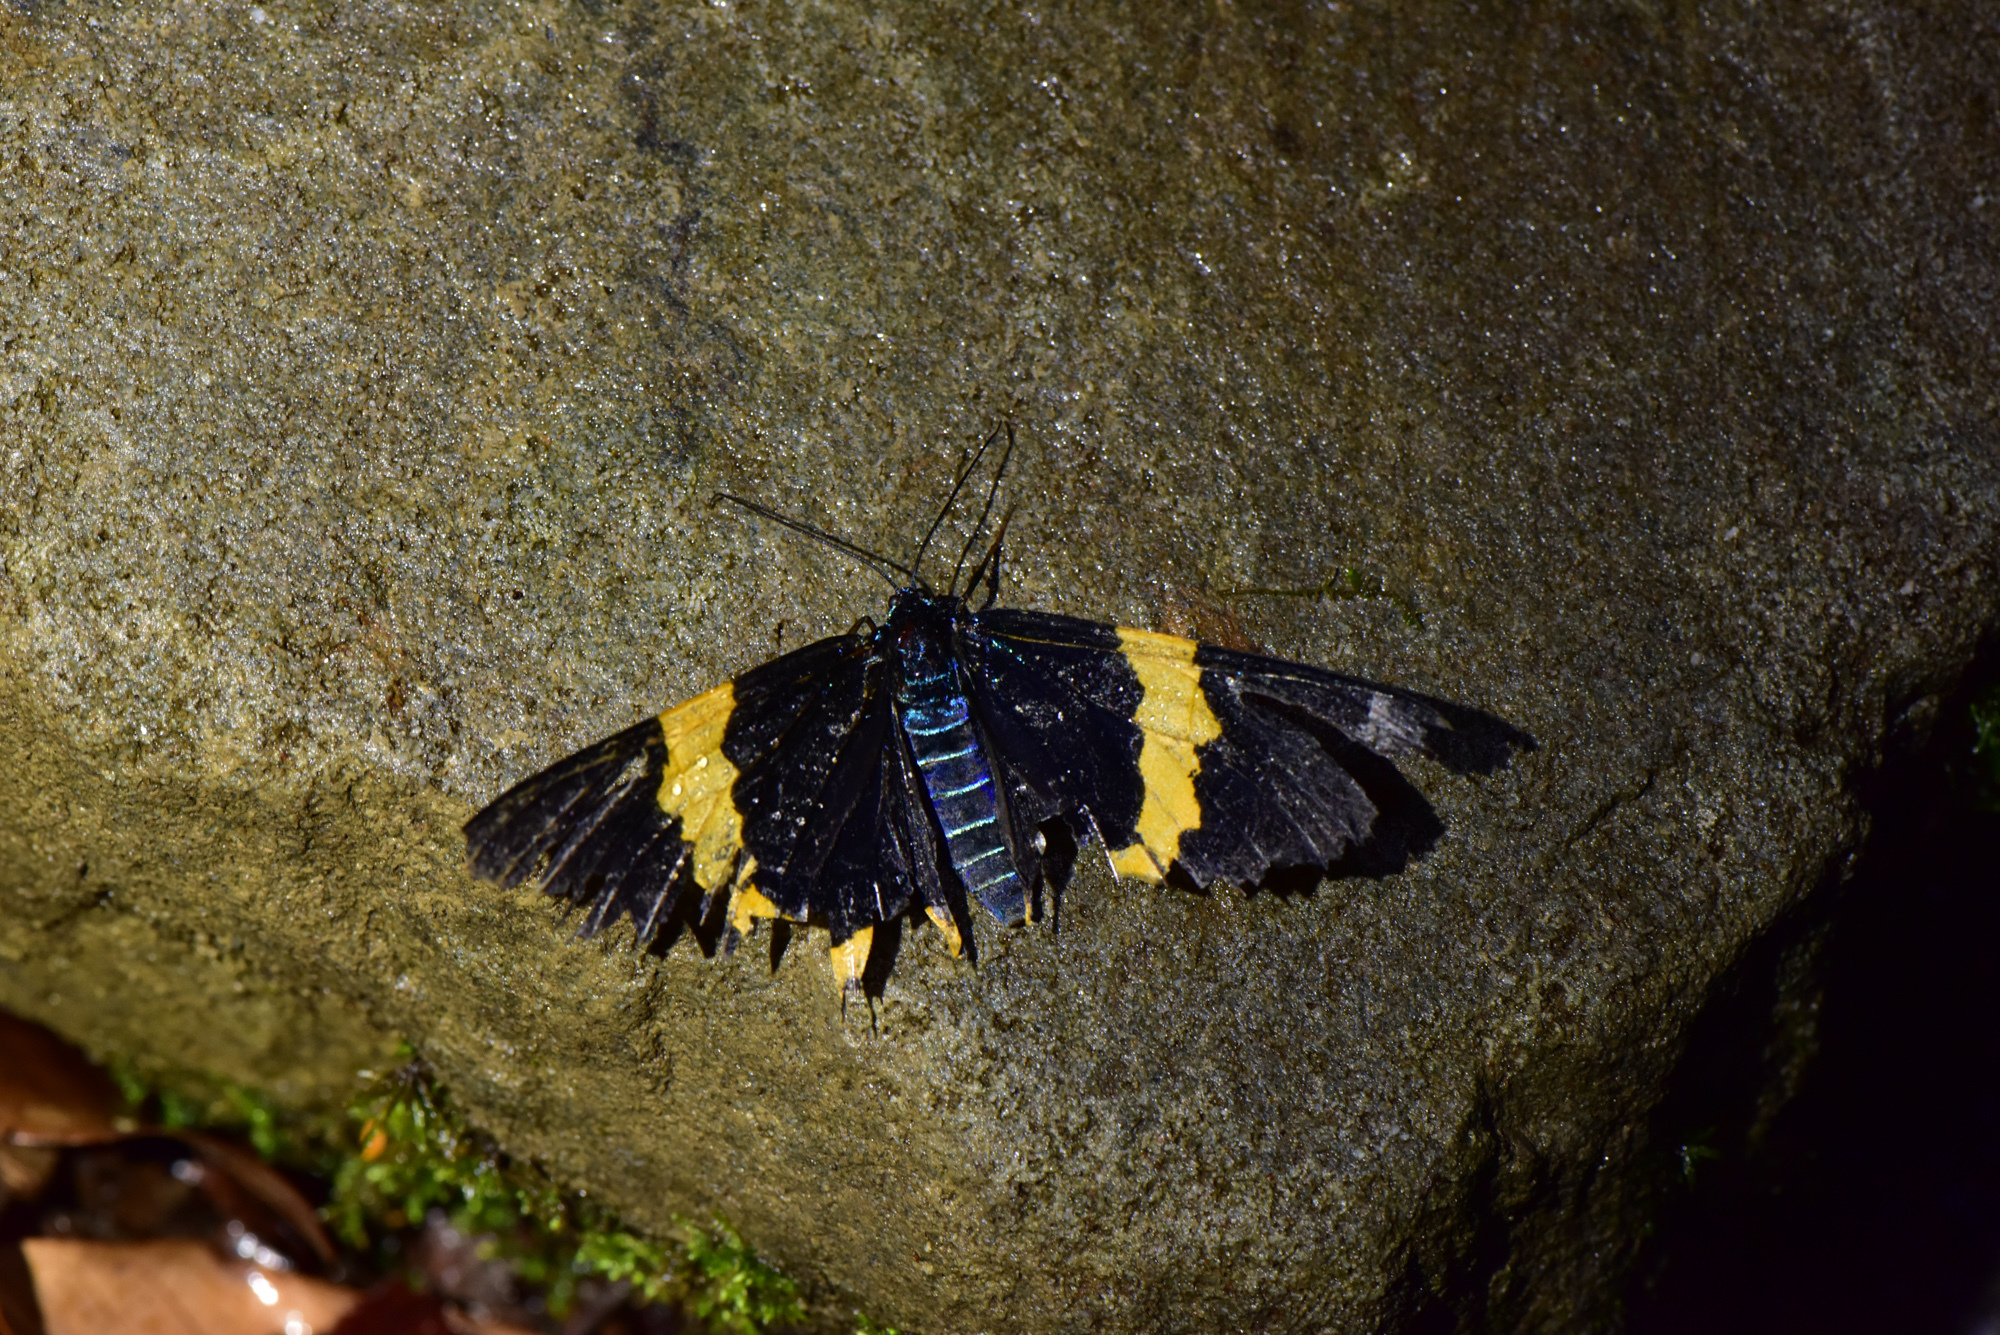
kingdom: Animalia
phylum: Arthropoda
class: Insecta
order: Lepidoptera
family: Geometridae
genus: Milionia
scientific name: Milionia basalis
